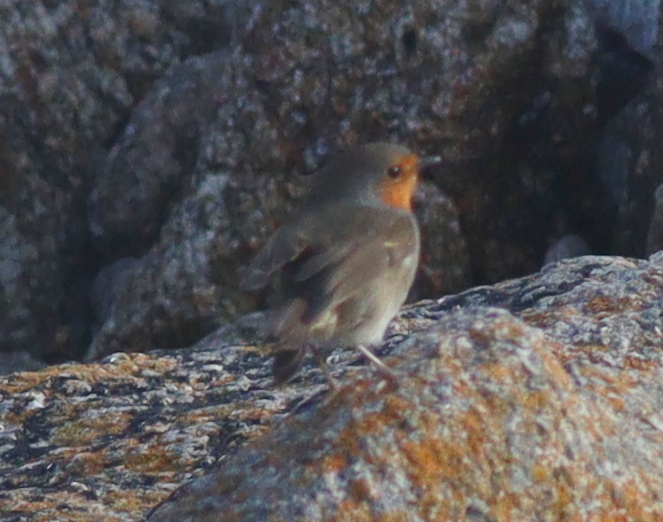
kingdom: Animalia
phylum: Chordata
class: Aves
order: Passeriformes
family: Muscicapidae
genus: Erithacus
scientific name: Erithacus rubecula
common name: European robin
